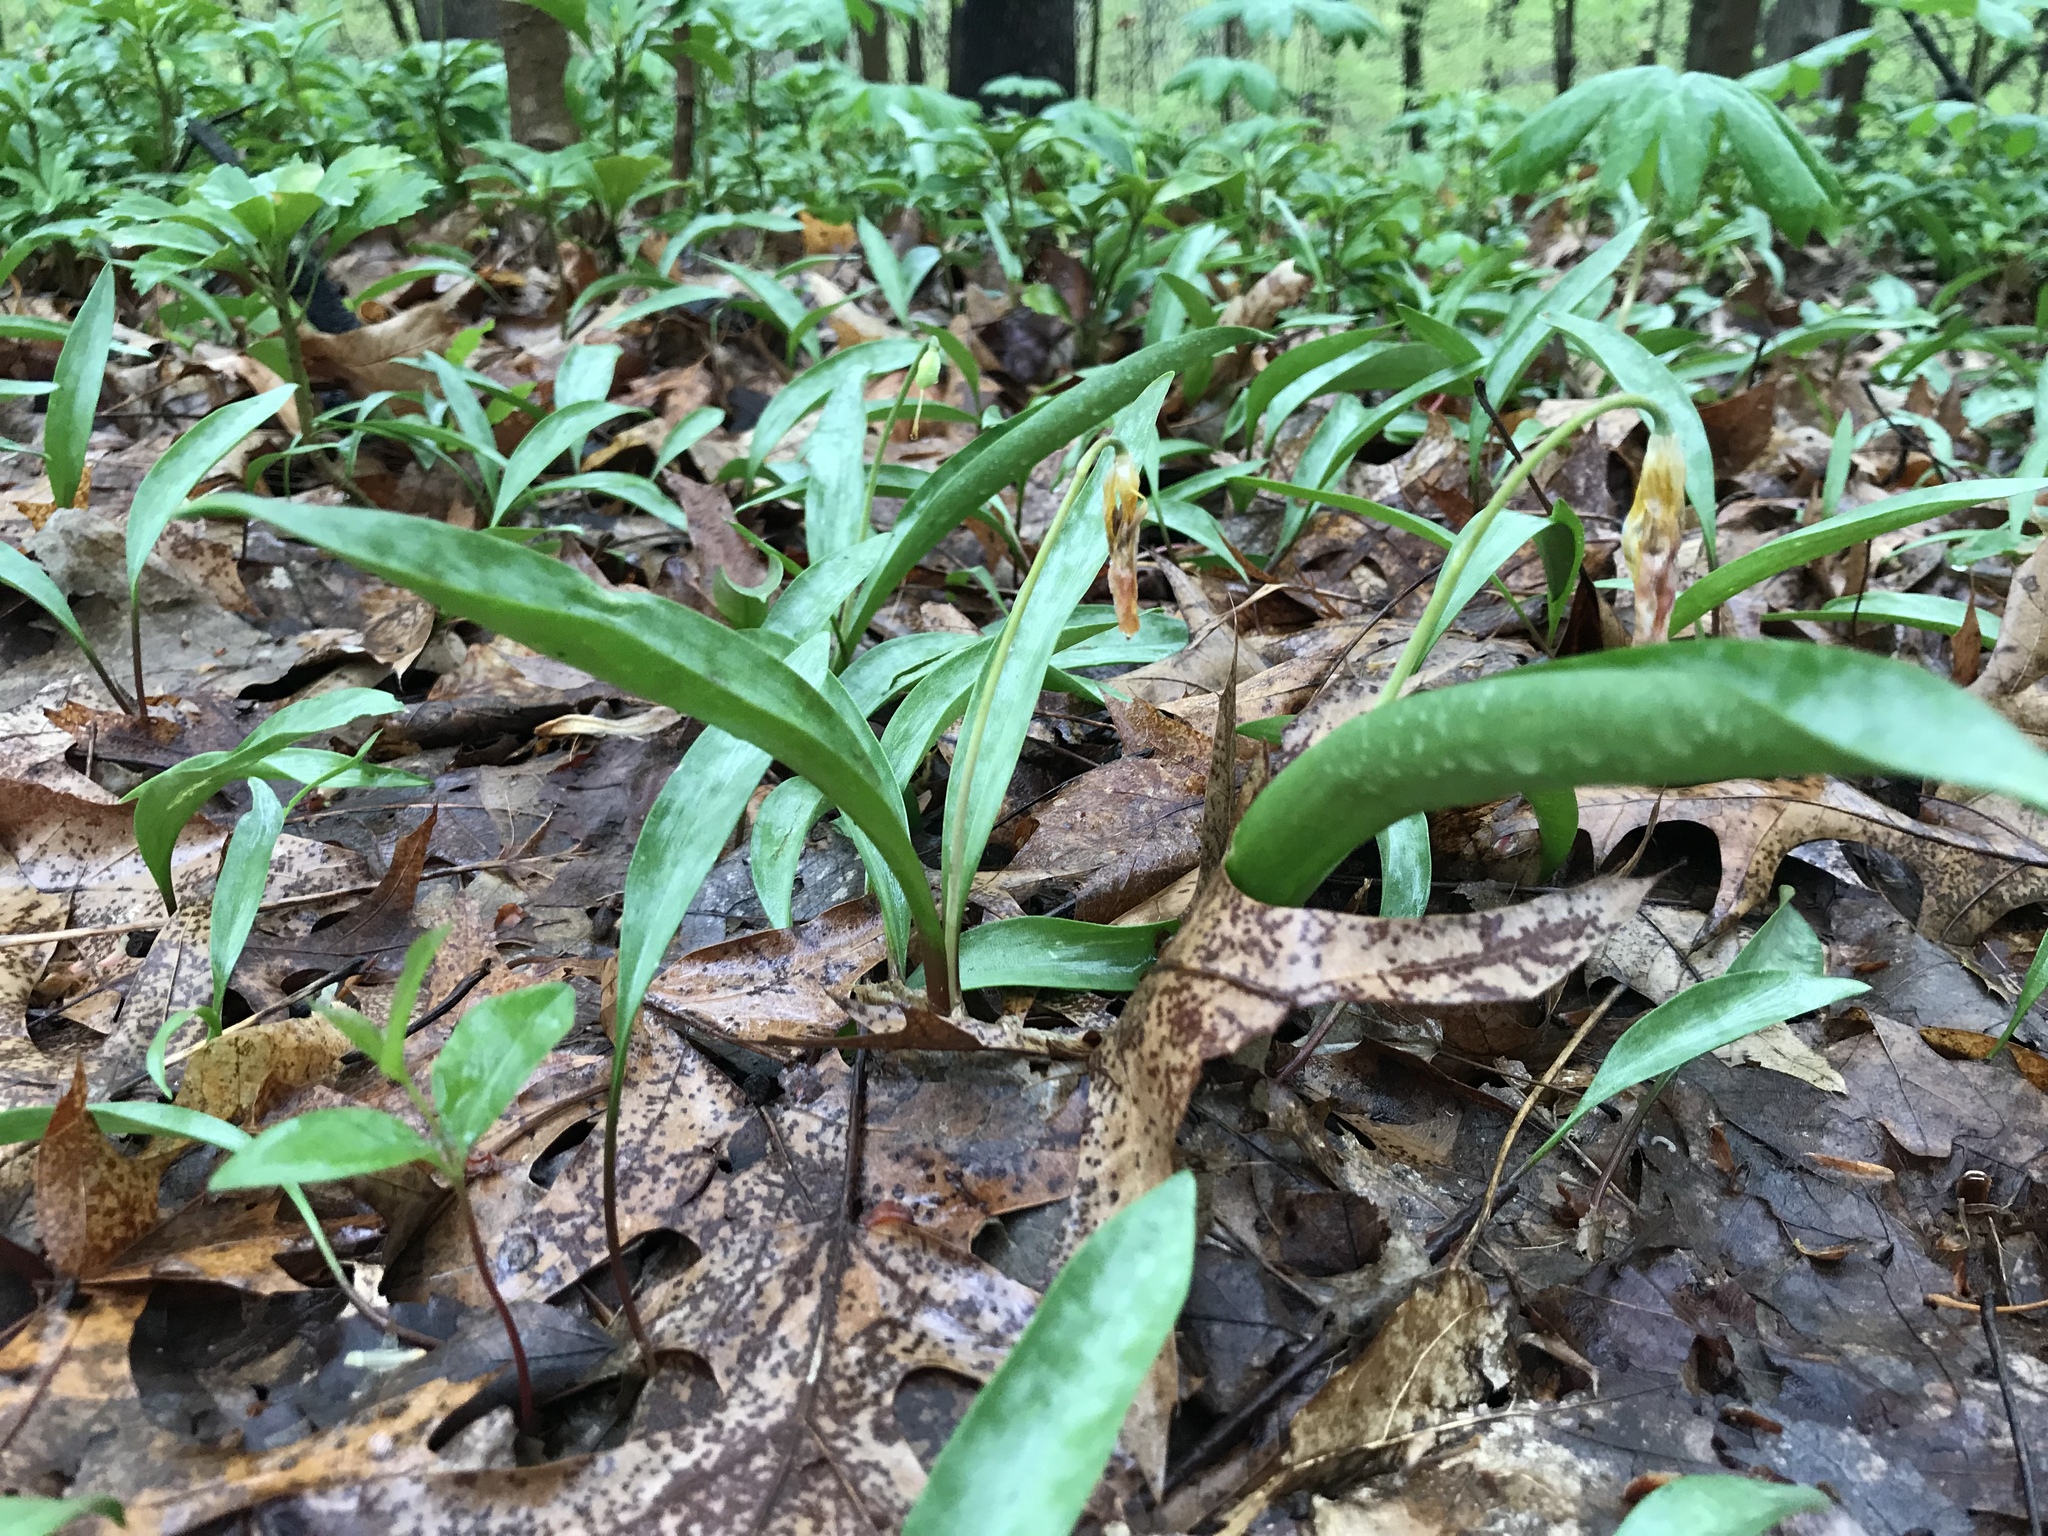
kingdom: Plantae
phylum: Tracheophyta
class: Liliopsida
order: Liliales
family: Liliaceae
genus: Erythronium
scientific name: Erythronium americanum
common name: Yellow adder's-tongue
